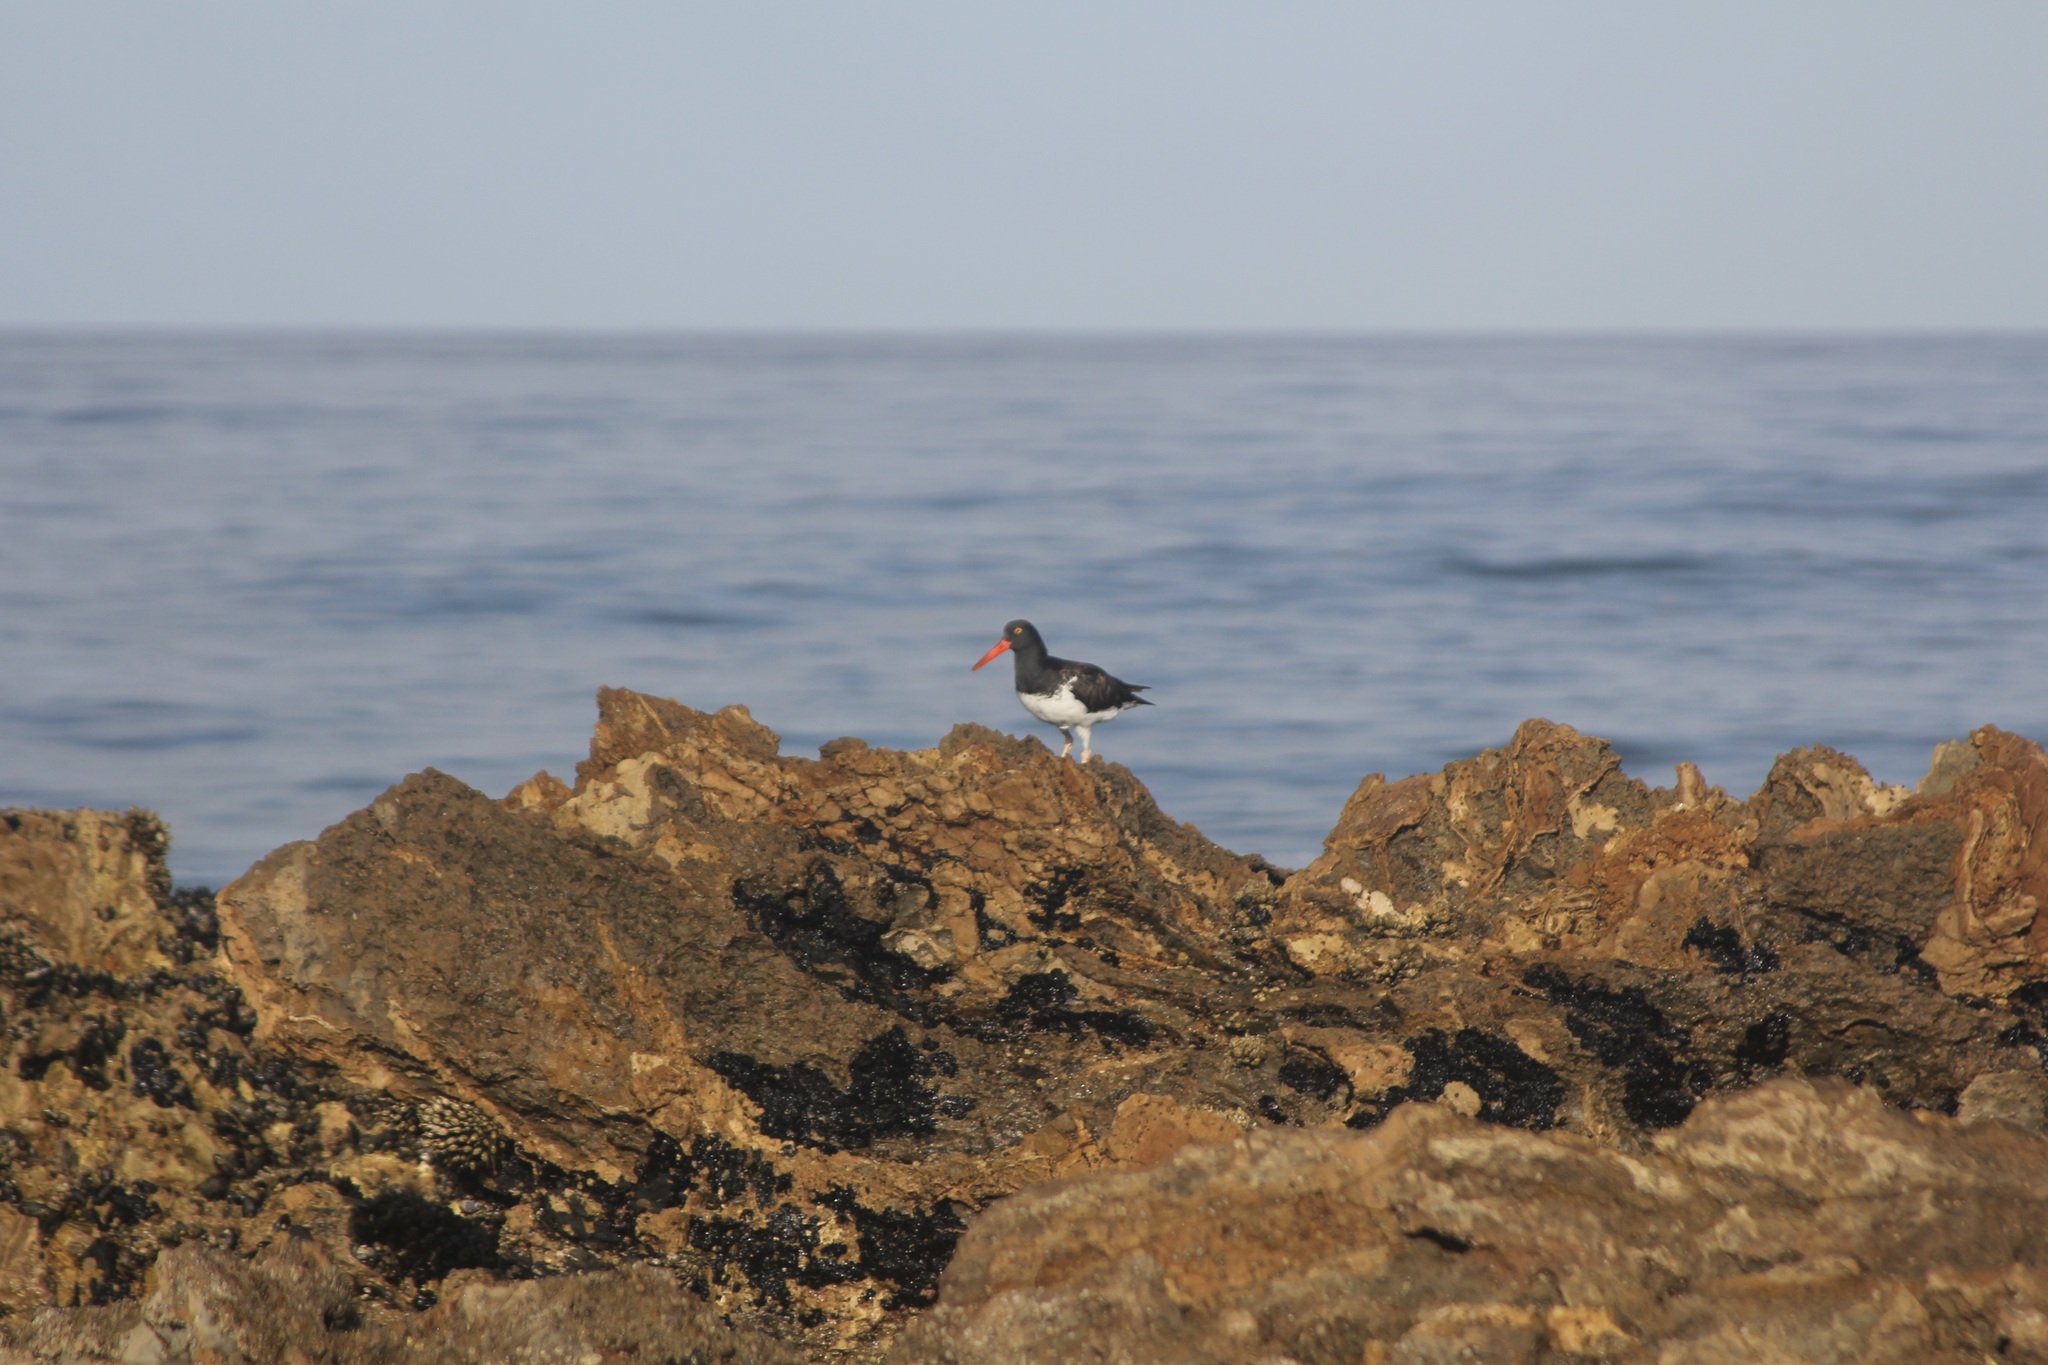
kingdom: Animalia
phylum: Chordata
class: Aves
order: Charadriiformes
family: Haematopodidae
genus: Haematopus
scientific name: Haematopus palliatus
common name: American oystercatcher
